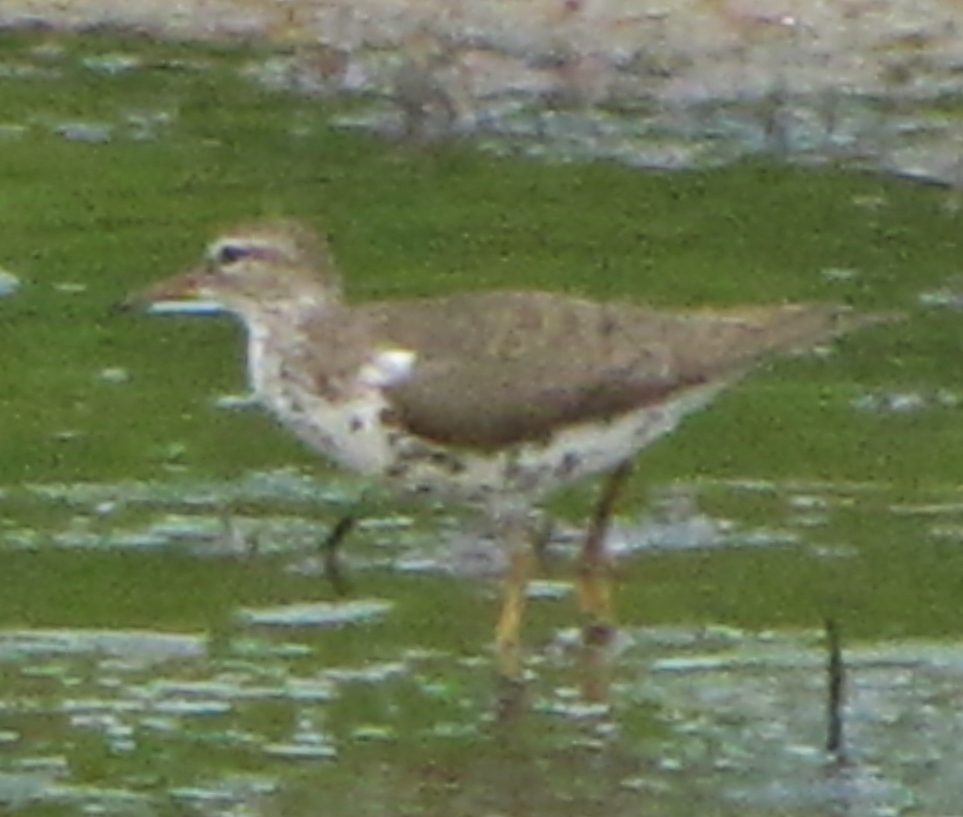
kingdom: Animalia
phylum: Chordata
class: Aves
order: Charadriiformes
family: Scolopacidae
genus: Actitis
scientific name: Actitis macularius
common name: Spotted sandpiper
